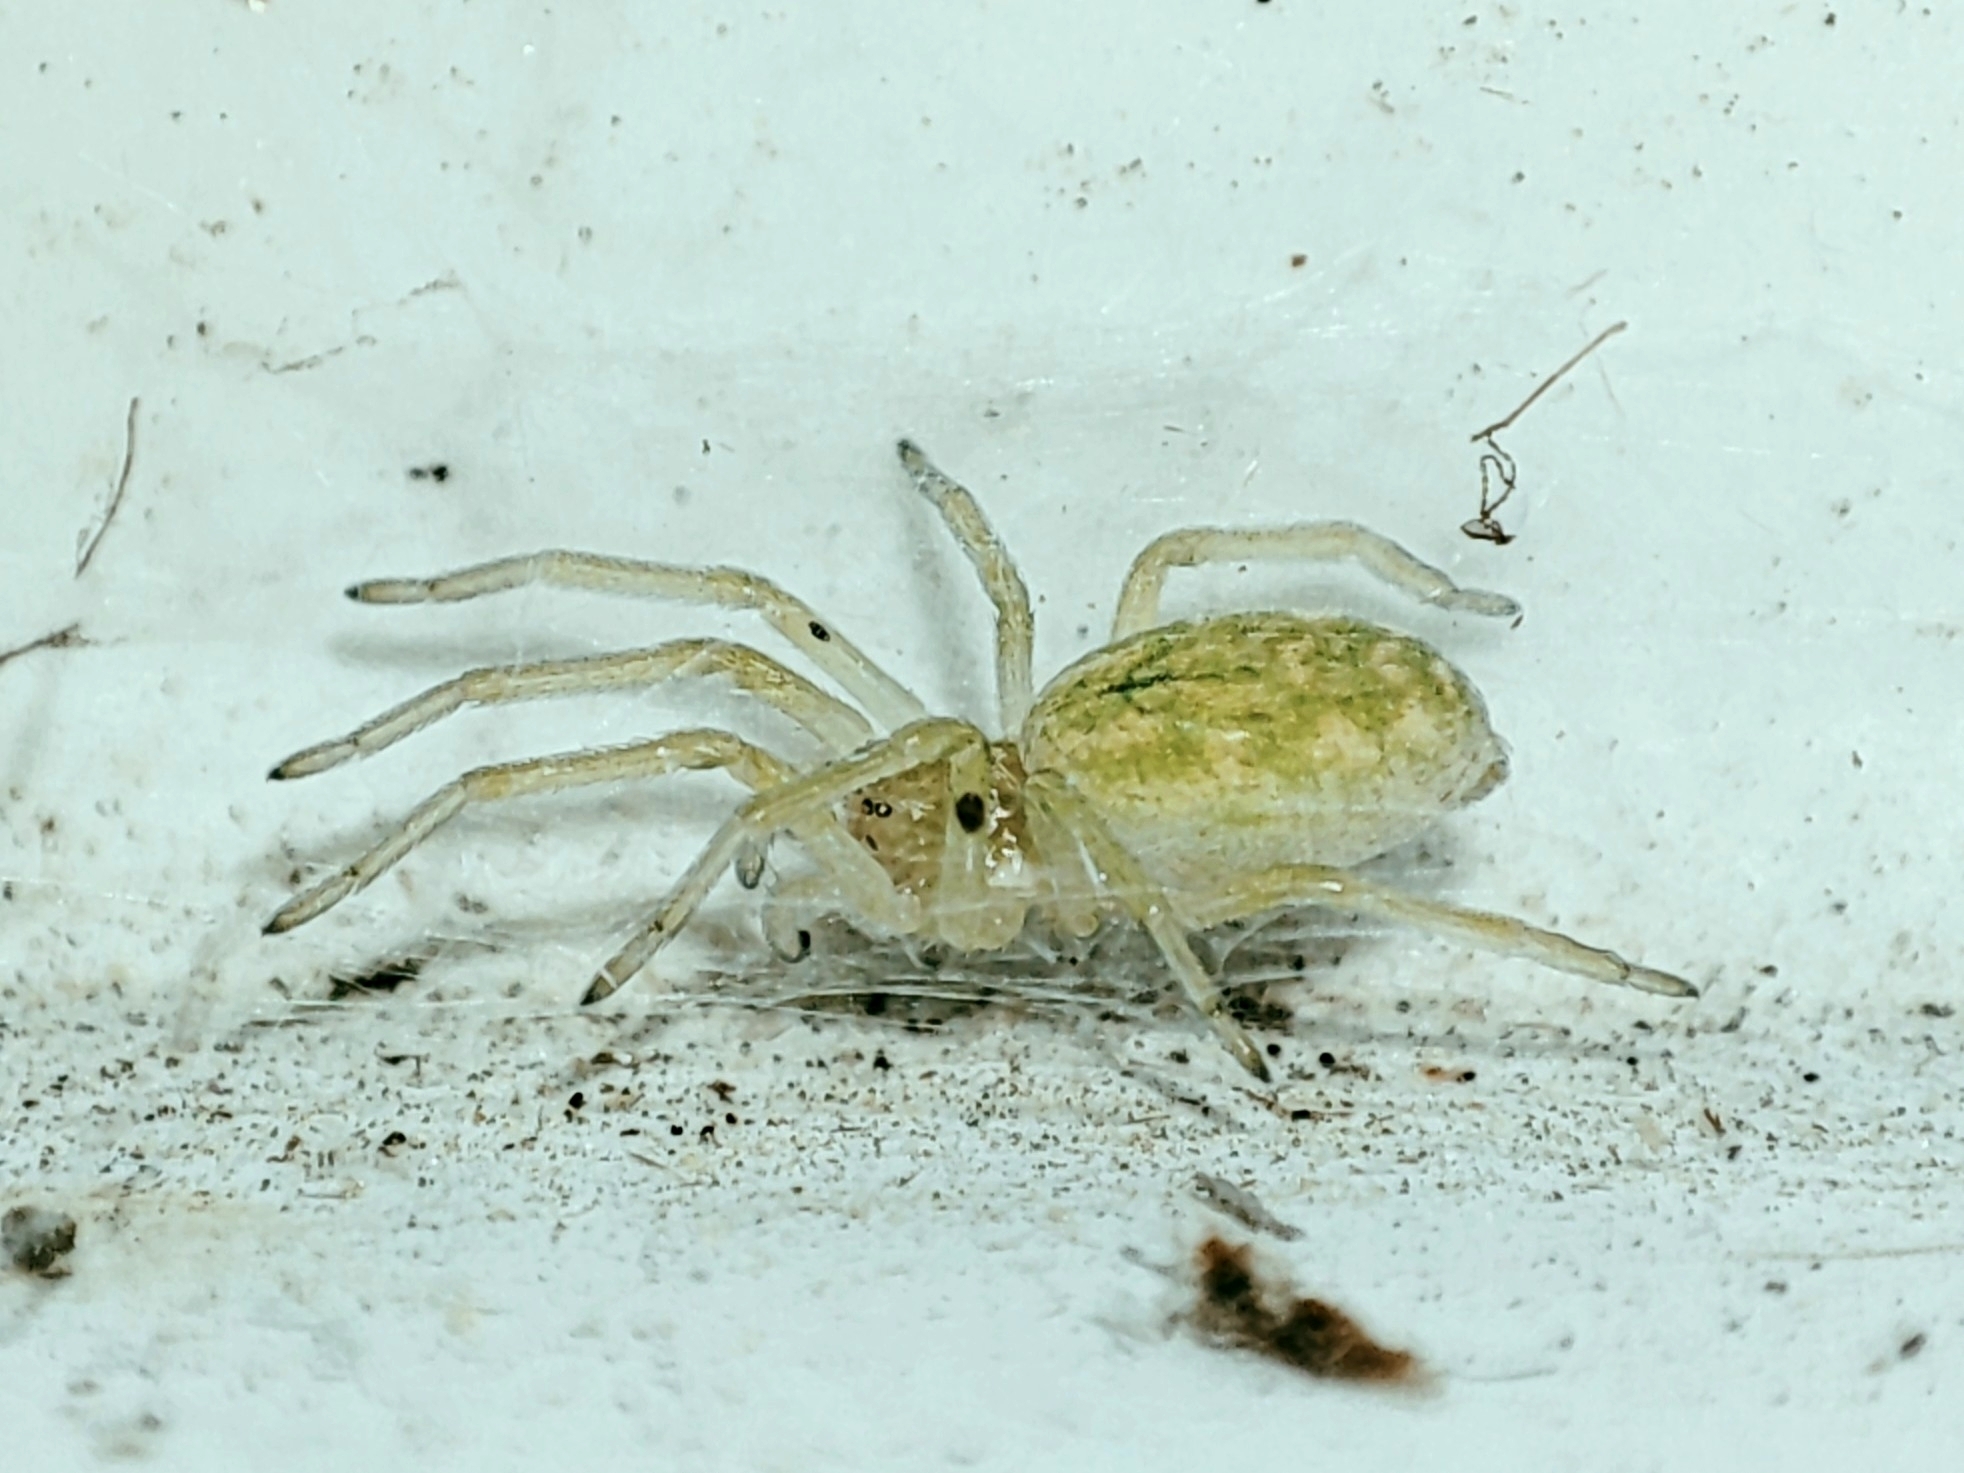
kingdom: Animalia
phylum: Arthropoda
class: Arachnida
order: Araneae
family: Dictynidae
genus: Nigma
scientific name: Nigma walckenaeri
